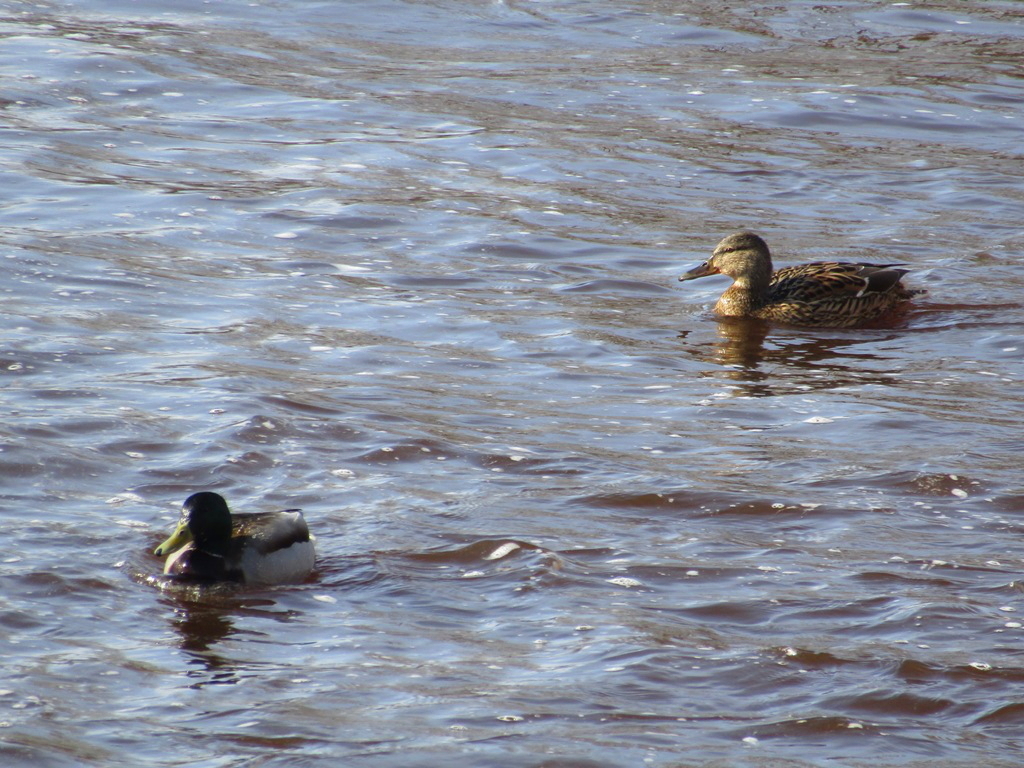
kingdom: Animalia
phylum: Chordata
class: Aves
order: Anseriformes
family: Anatidae
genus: Anas
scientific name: Anas platyrhynchos
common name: Mallard
